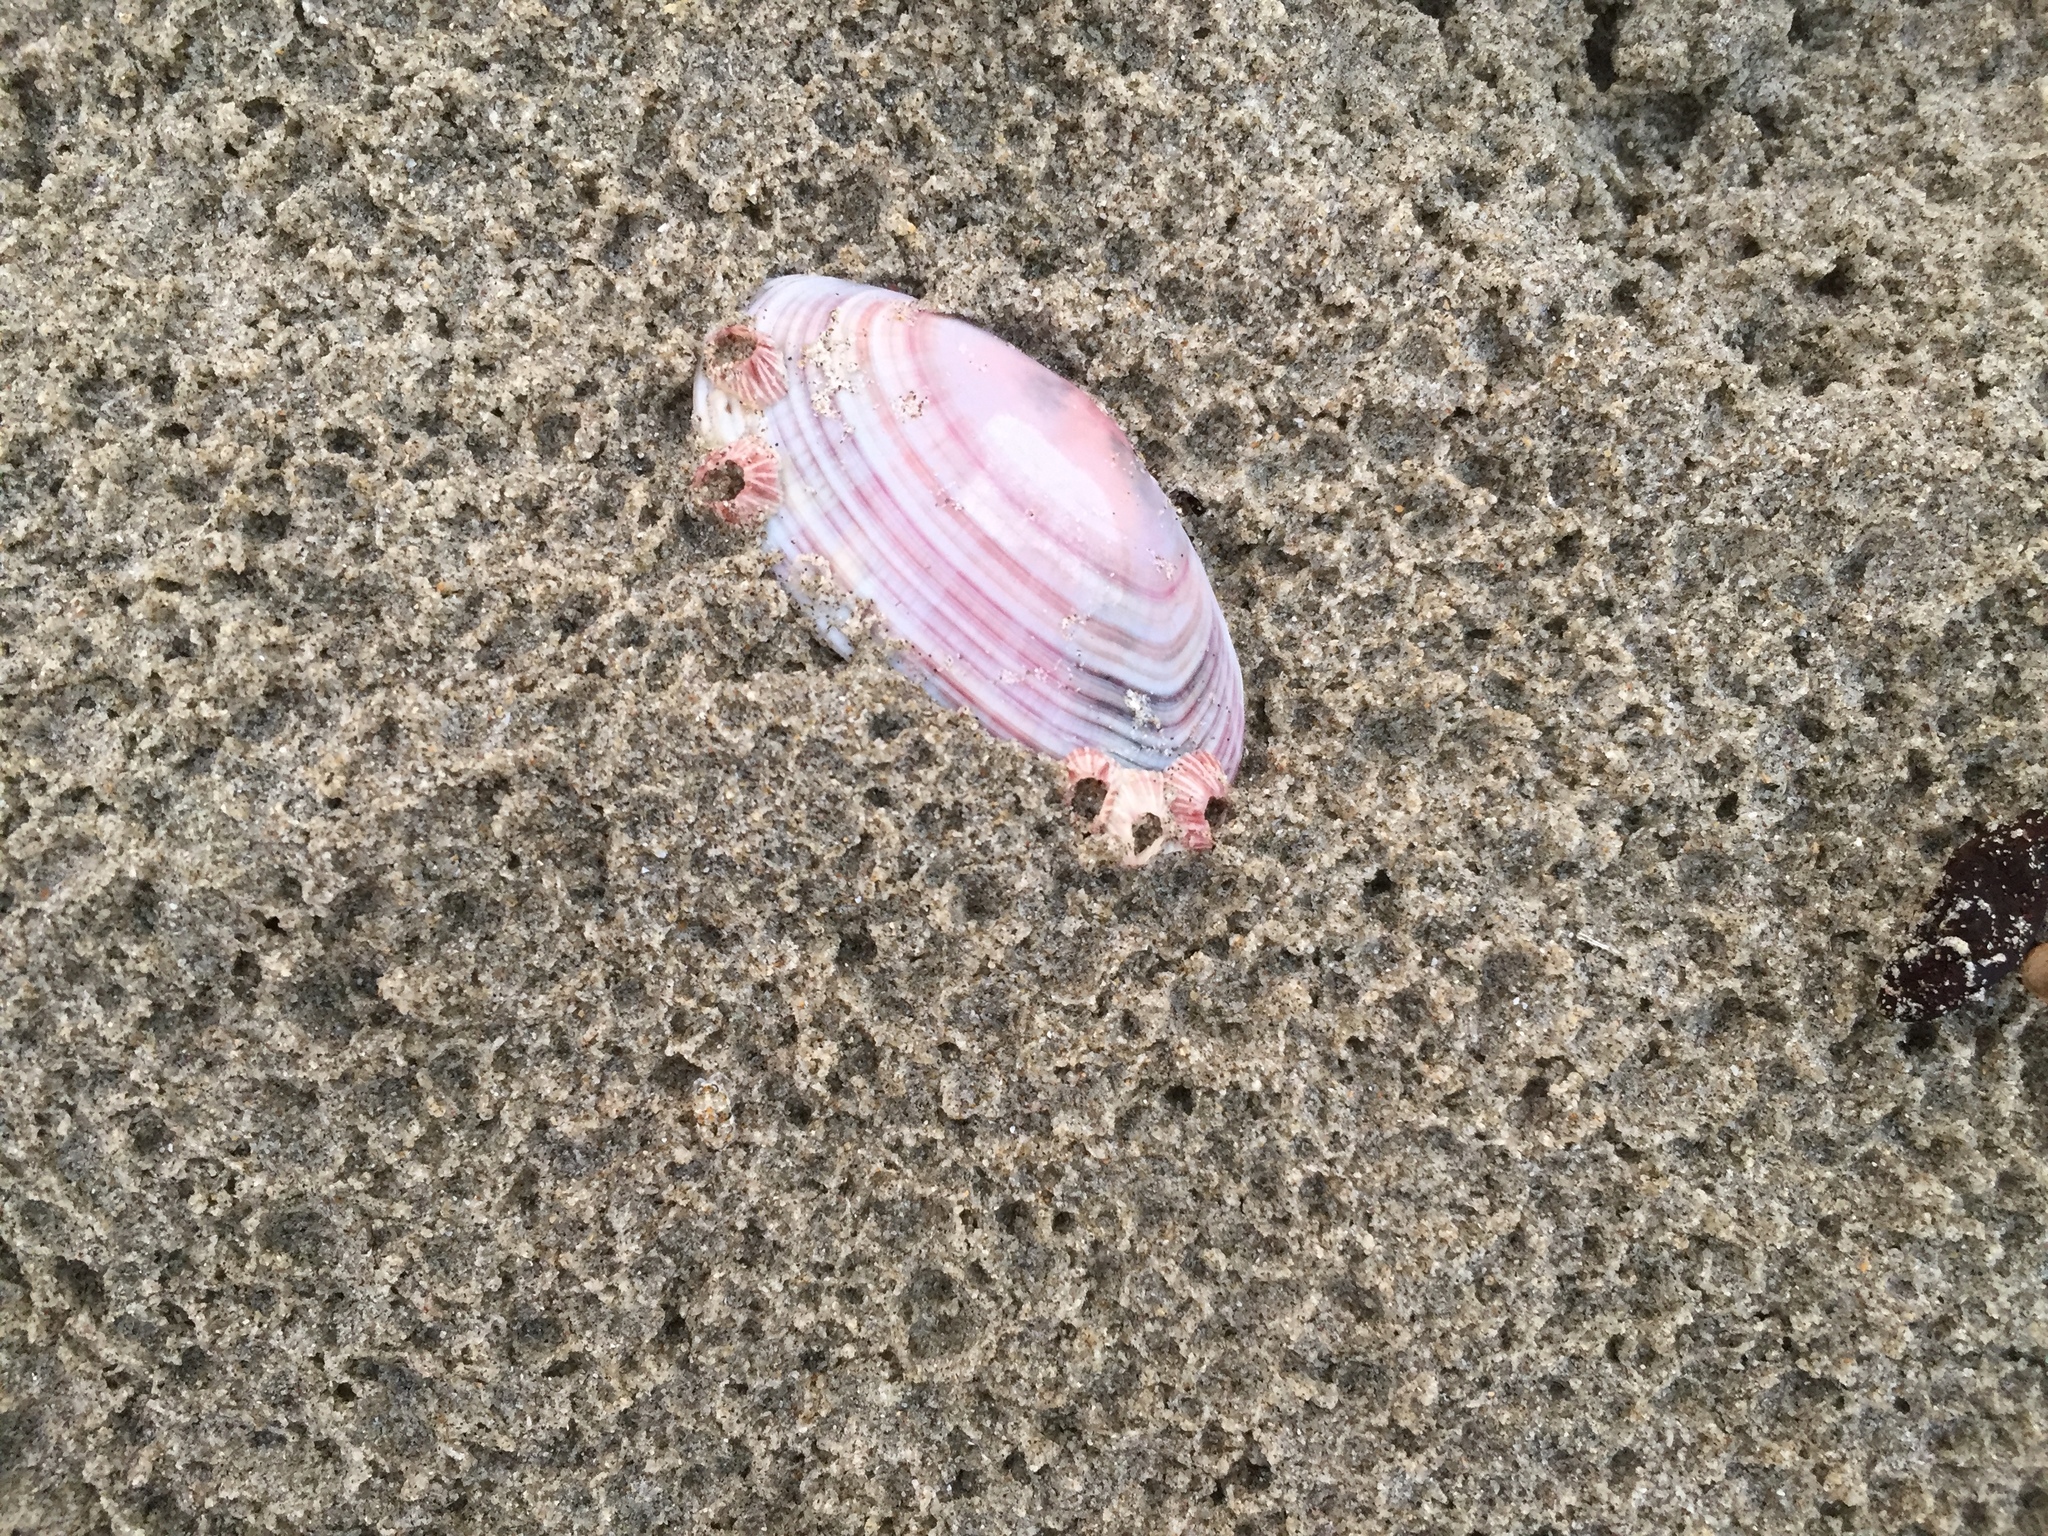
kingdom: Animalia
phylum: Mollusca
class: Bivalvia
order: Cardiida
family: Psammobiidae
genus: Gari
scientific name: Gari convexa
